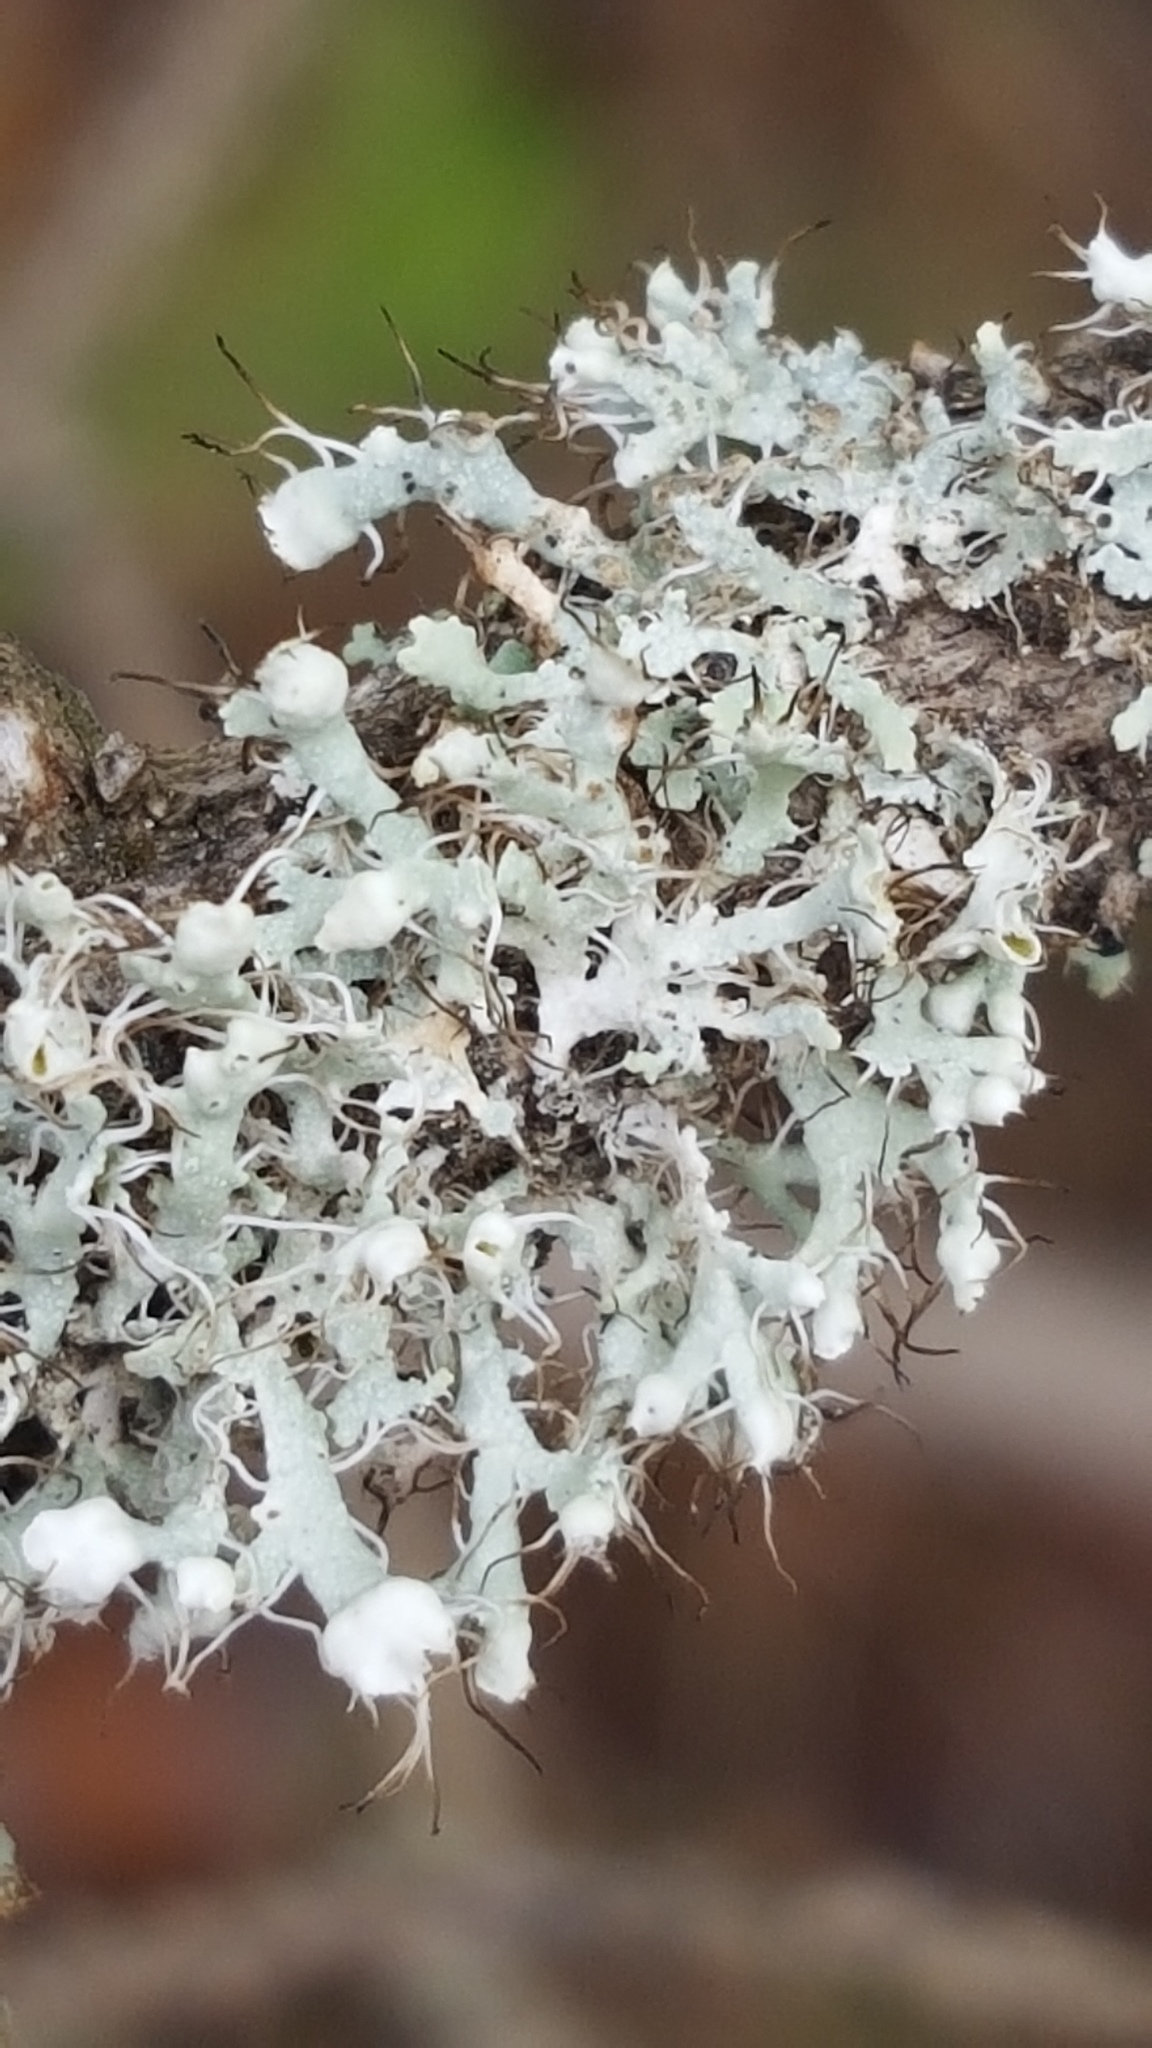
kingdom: Fungi
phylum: Ascomycota
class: Lecanoromycetes
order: Caliciales
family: Physciaceae
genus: Physcia
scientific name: Physcia adscendens
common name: Hooded rosette lichen
